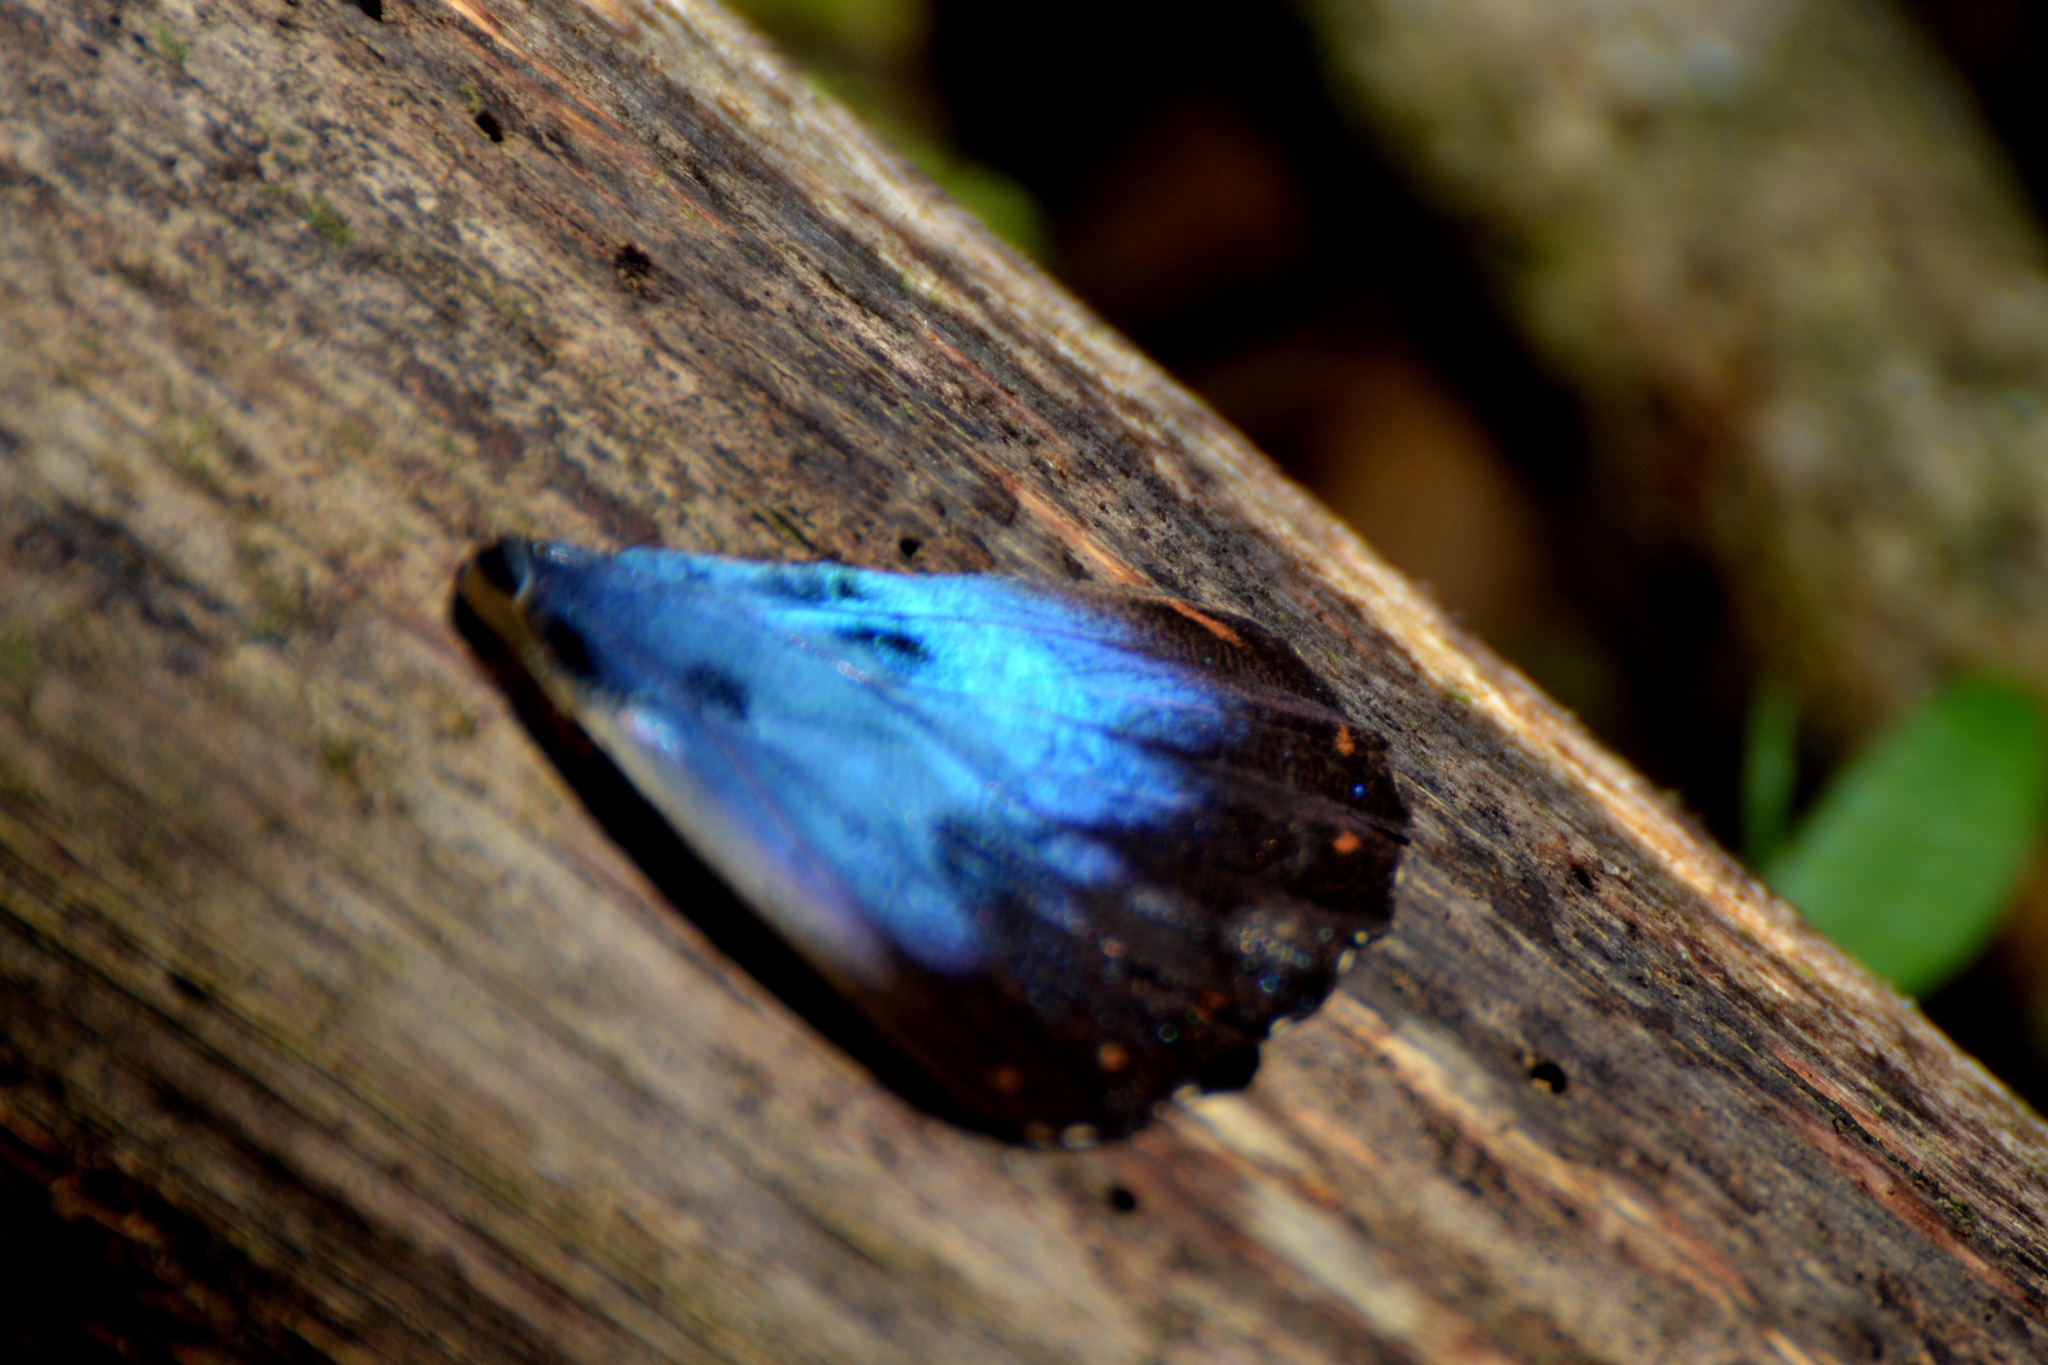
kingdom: Animalia
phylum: Arthropoda
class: Insecta
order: Lepidoptera
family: Nymphalidae
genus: Morpho
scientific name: Morpho helenor
